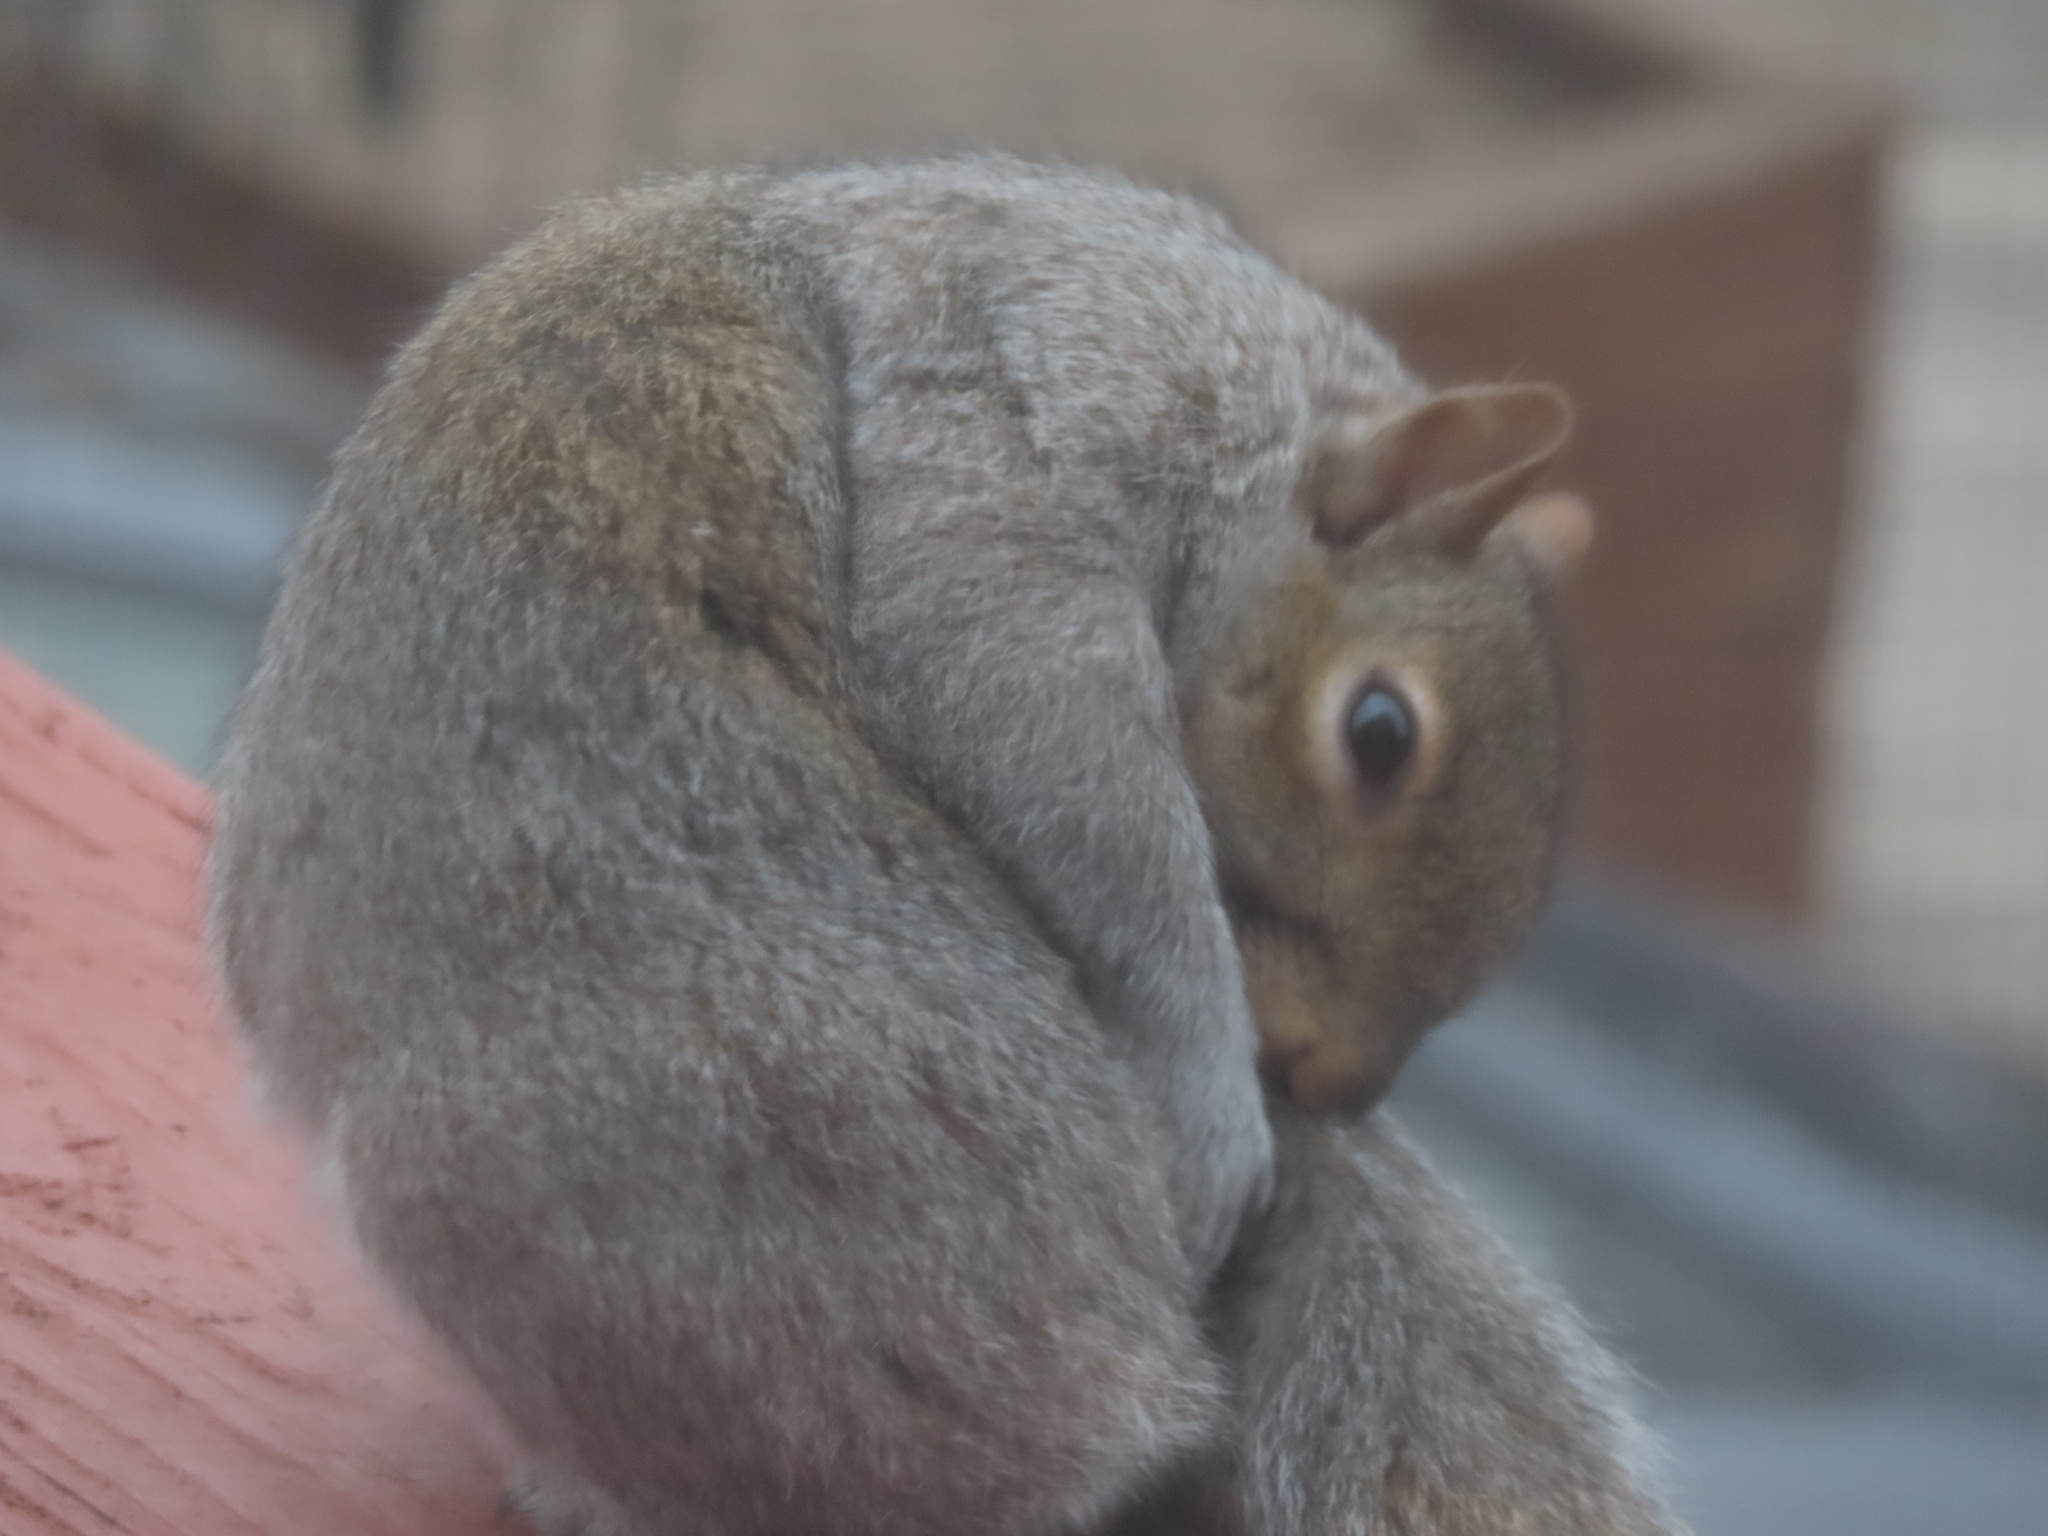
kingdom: Animalia
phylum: Chordata
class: Mammalia
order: Rodentia
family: Sciuridae
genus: Sciurus
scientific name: Sciurus carolinensis
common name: Eastern gray squirrel
